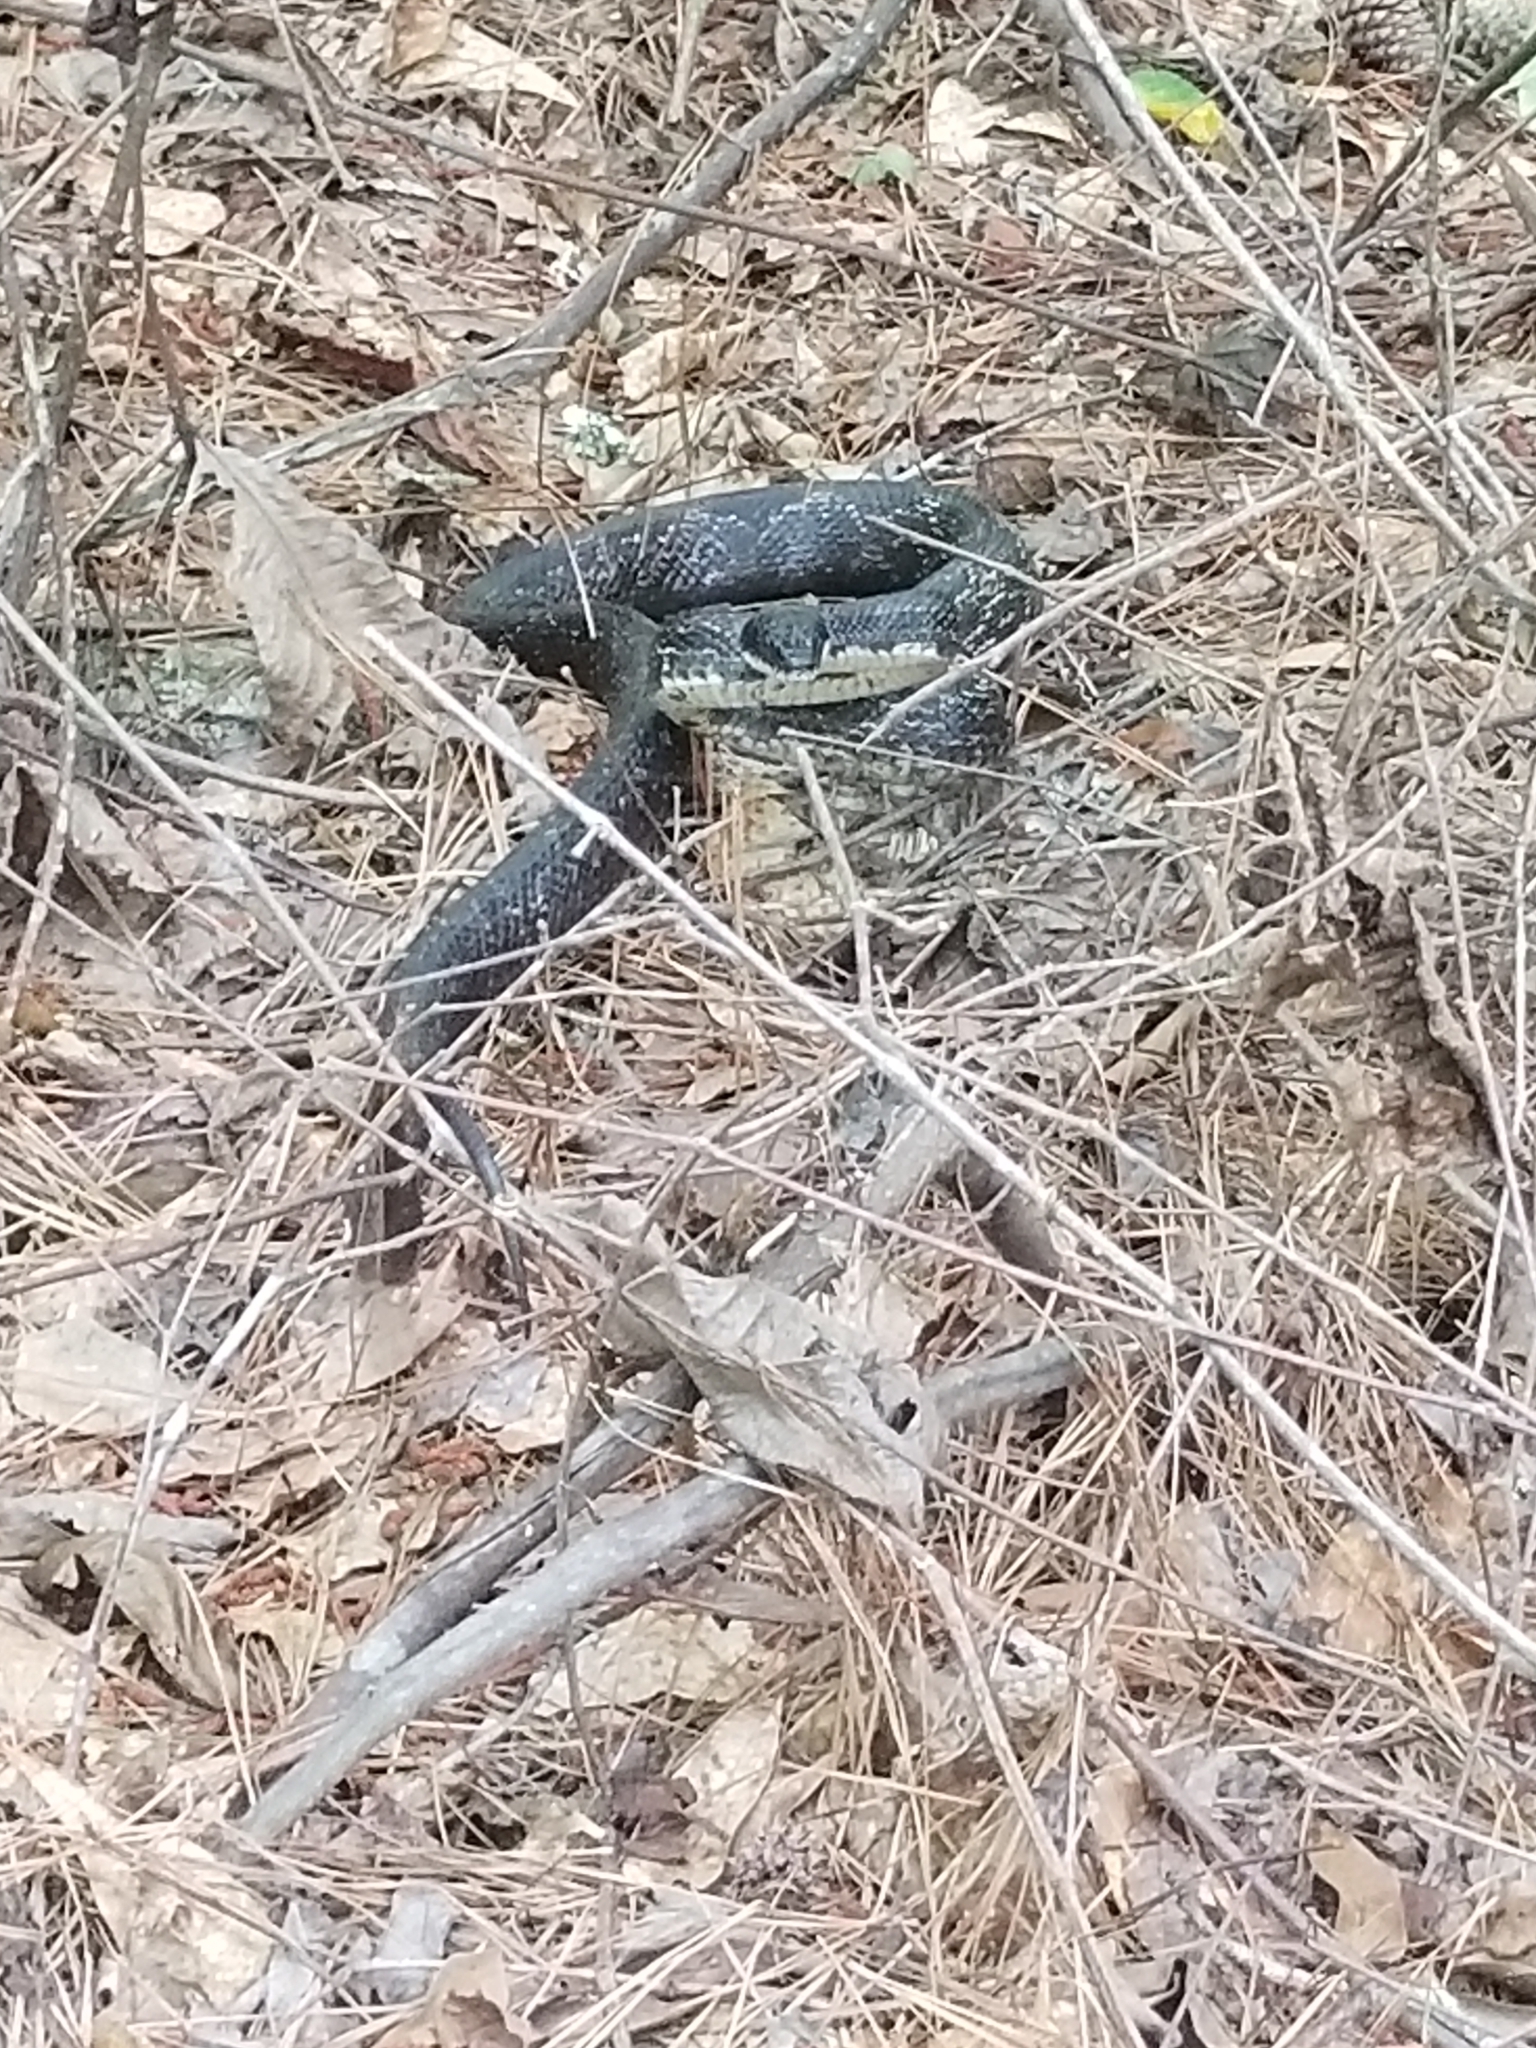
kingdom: Animalia
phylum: Chordata
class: Squamata
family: Colubridae
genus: Pantherophis
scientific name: Pantherophis alleghaniensis
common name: Eastern rat snake
